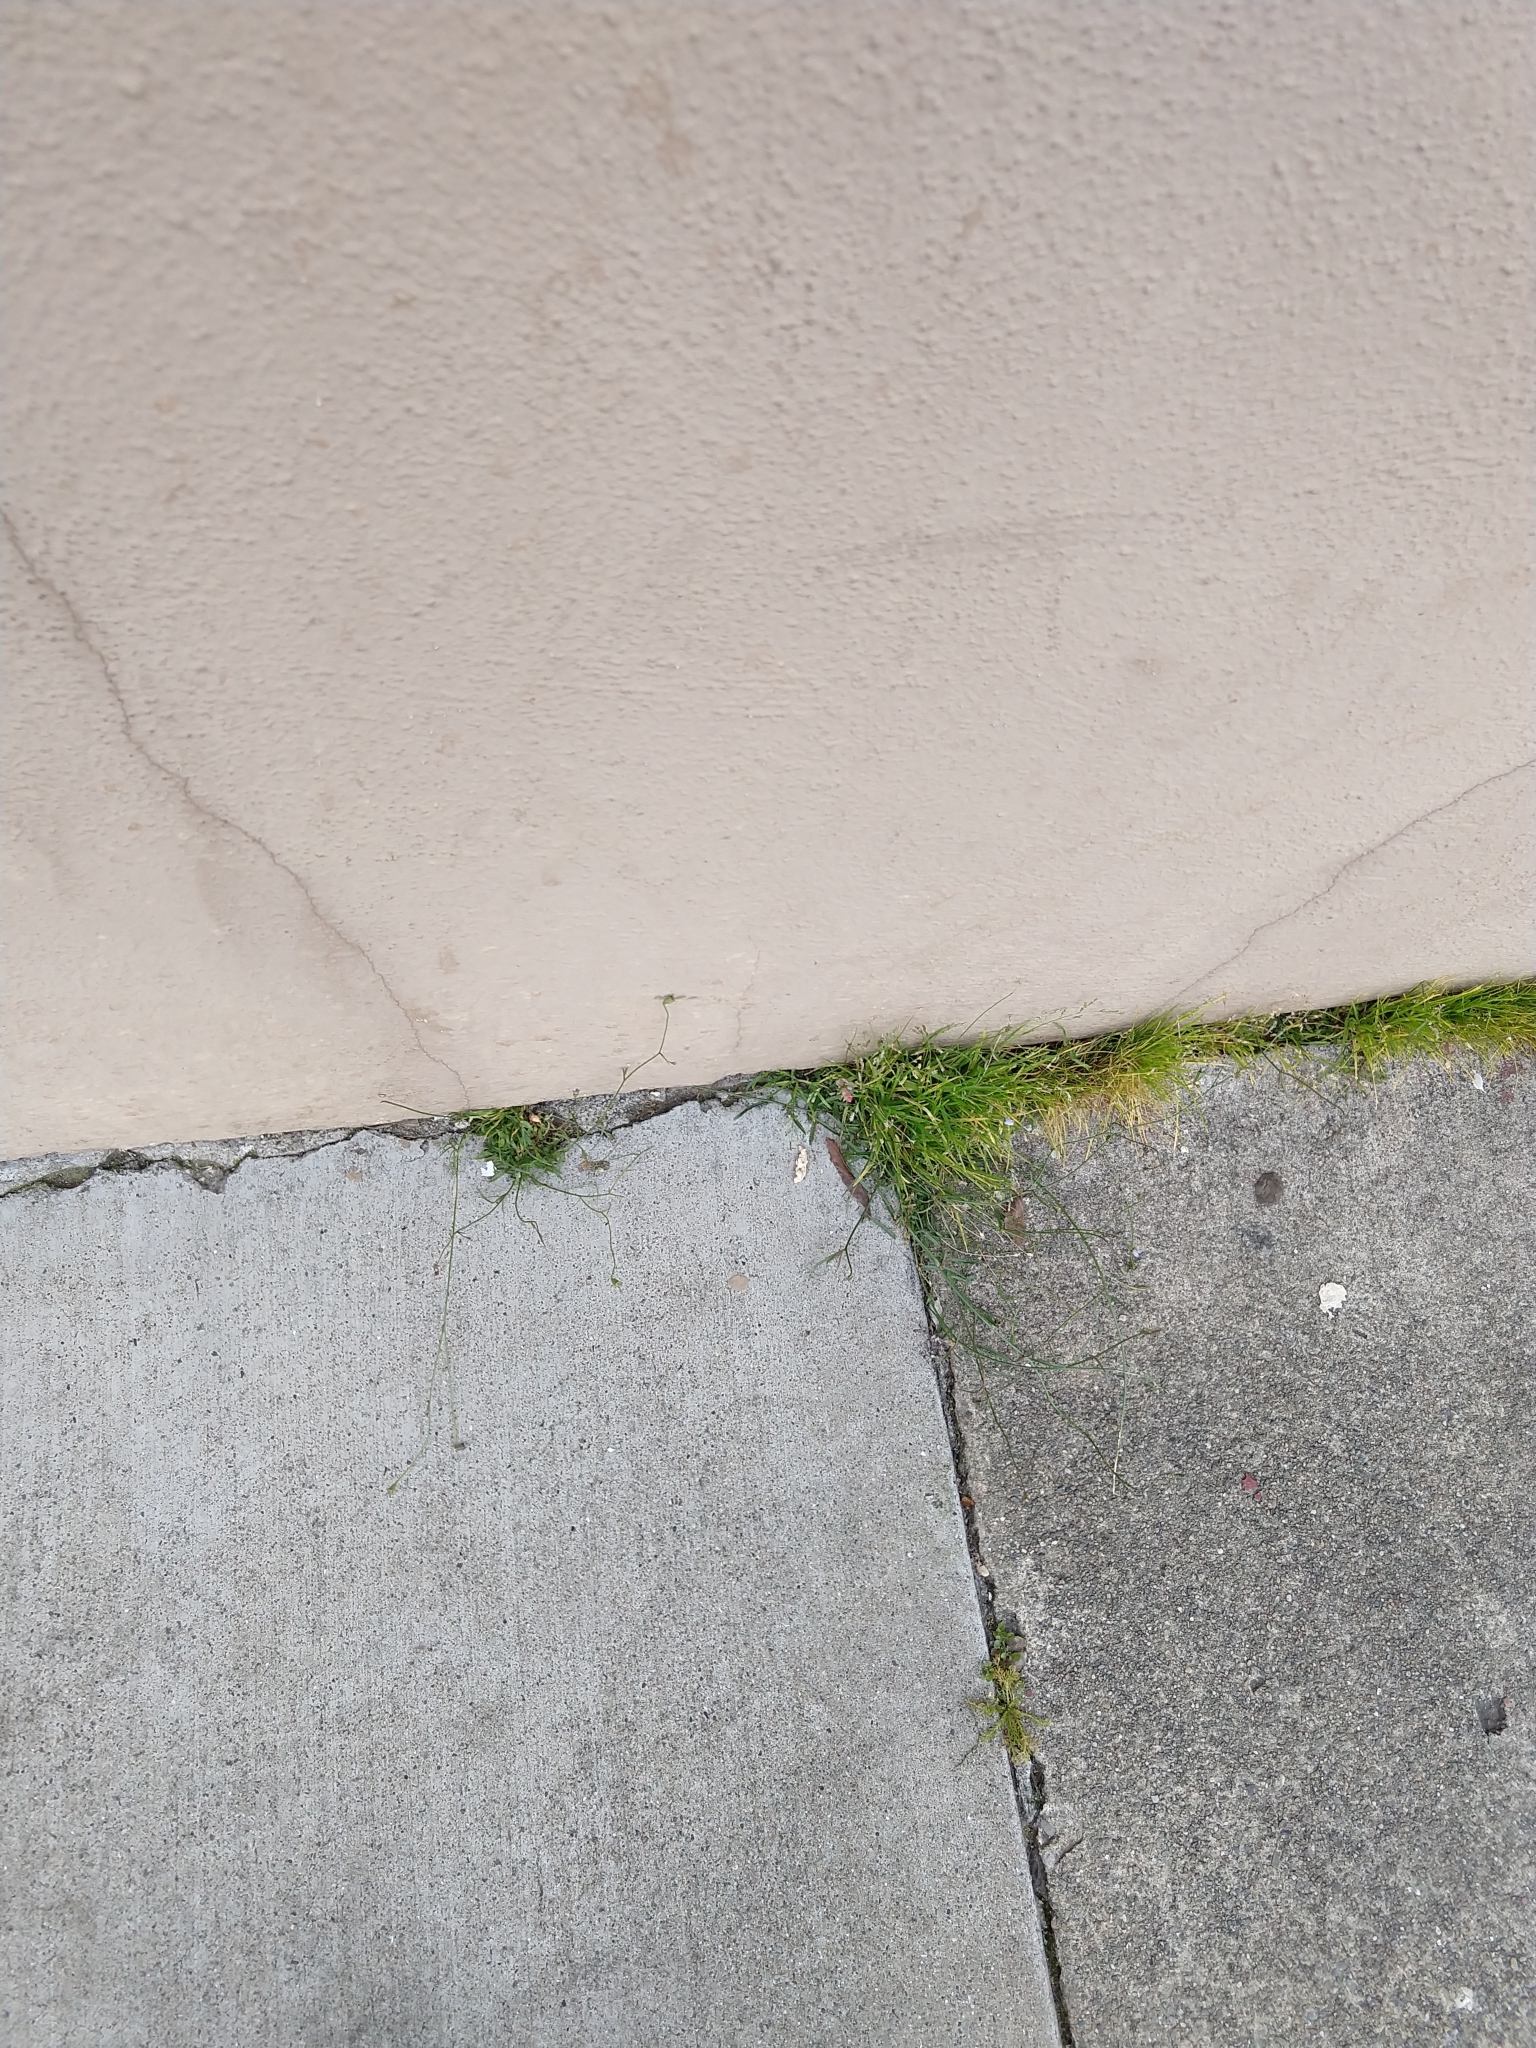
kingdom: Plantae
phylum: Tracheophyta
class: Magnoliopsida
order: Asterales
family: Campanulaceae
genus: Wahlenbergia
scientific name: Wahlenbergia marginata
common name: Southern rockbell
